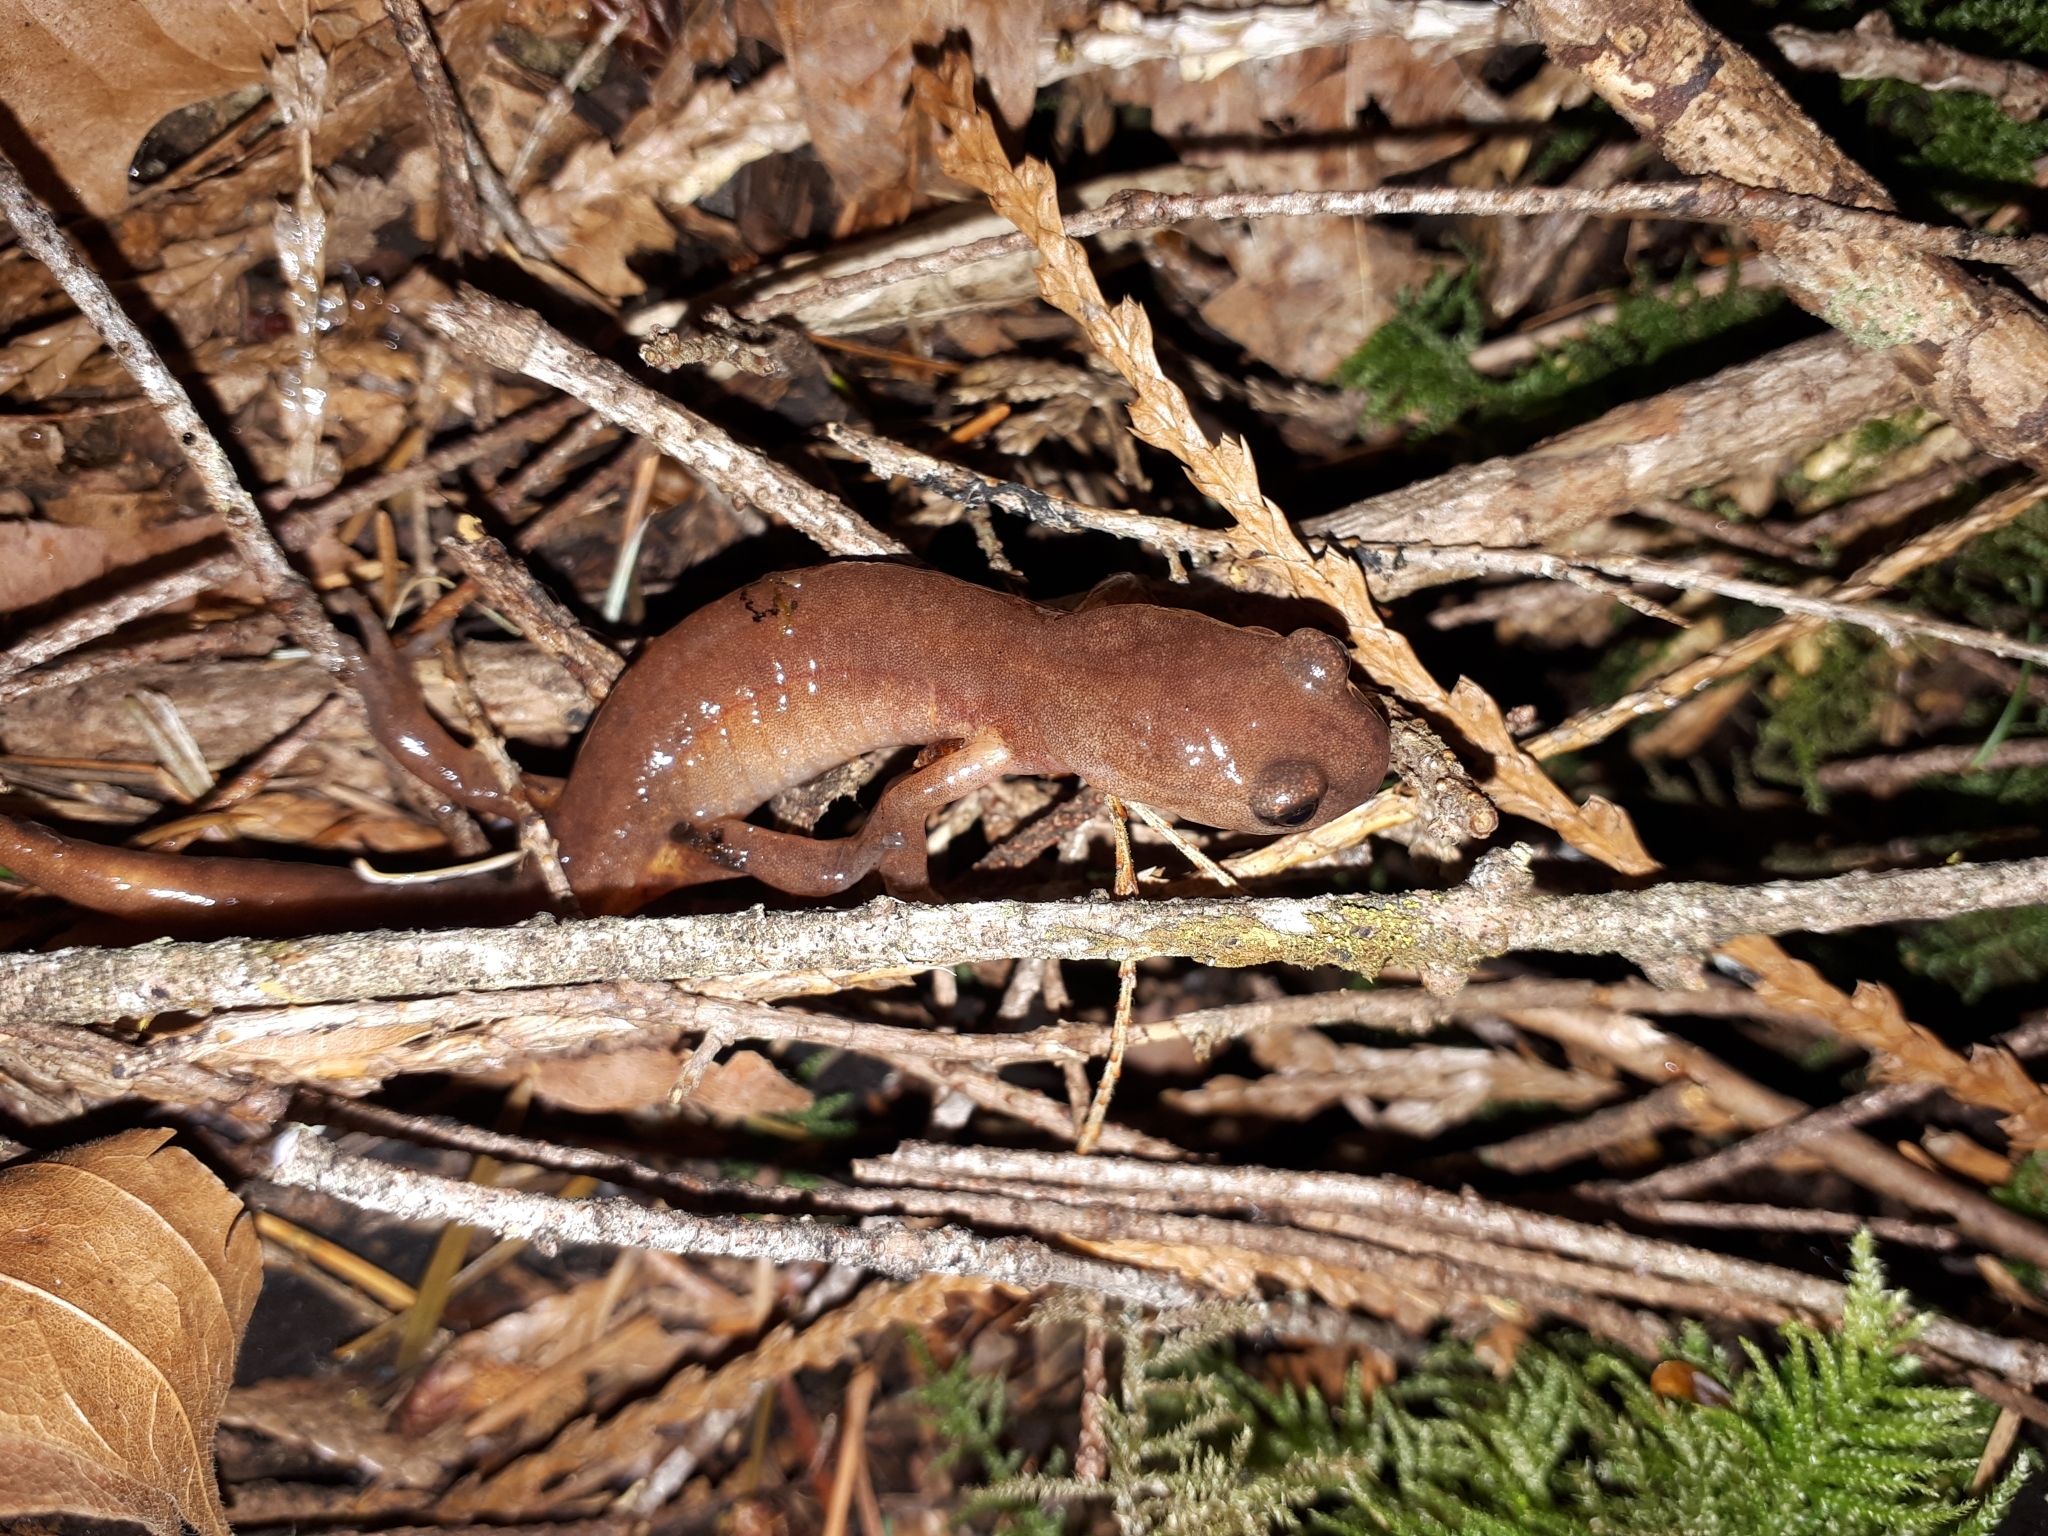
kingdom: Animalia
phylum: Chordata
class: Amphibia
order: Caudata
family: Plethodontidae
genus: Ensatina
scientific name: Ensatina eschscholtzii
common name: Ensatina
